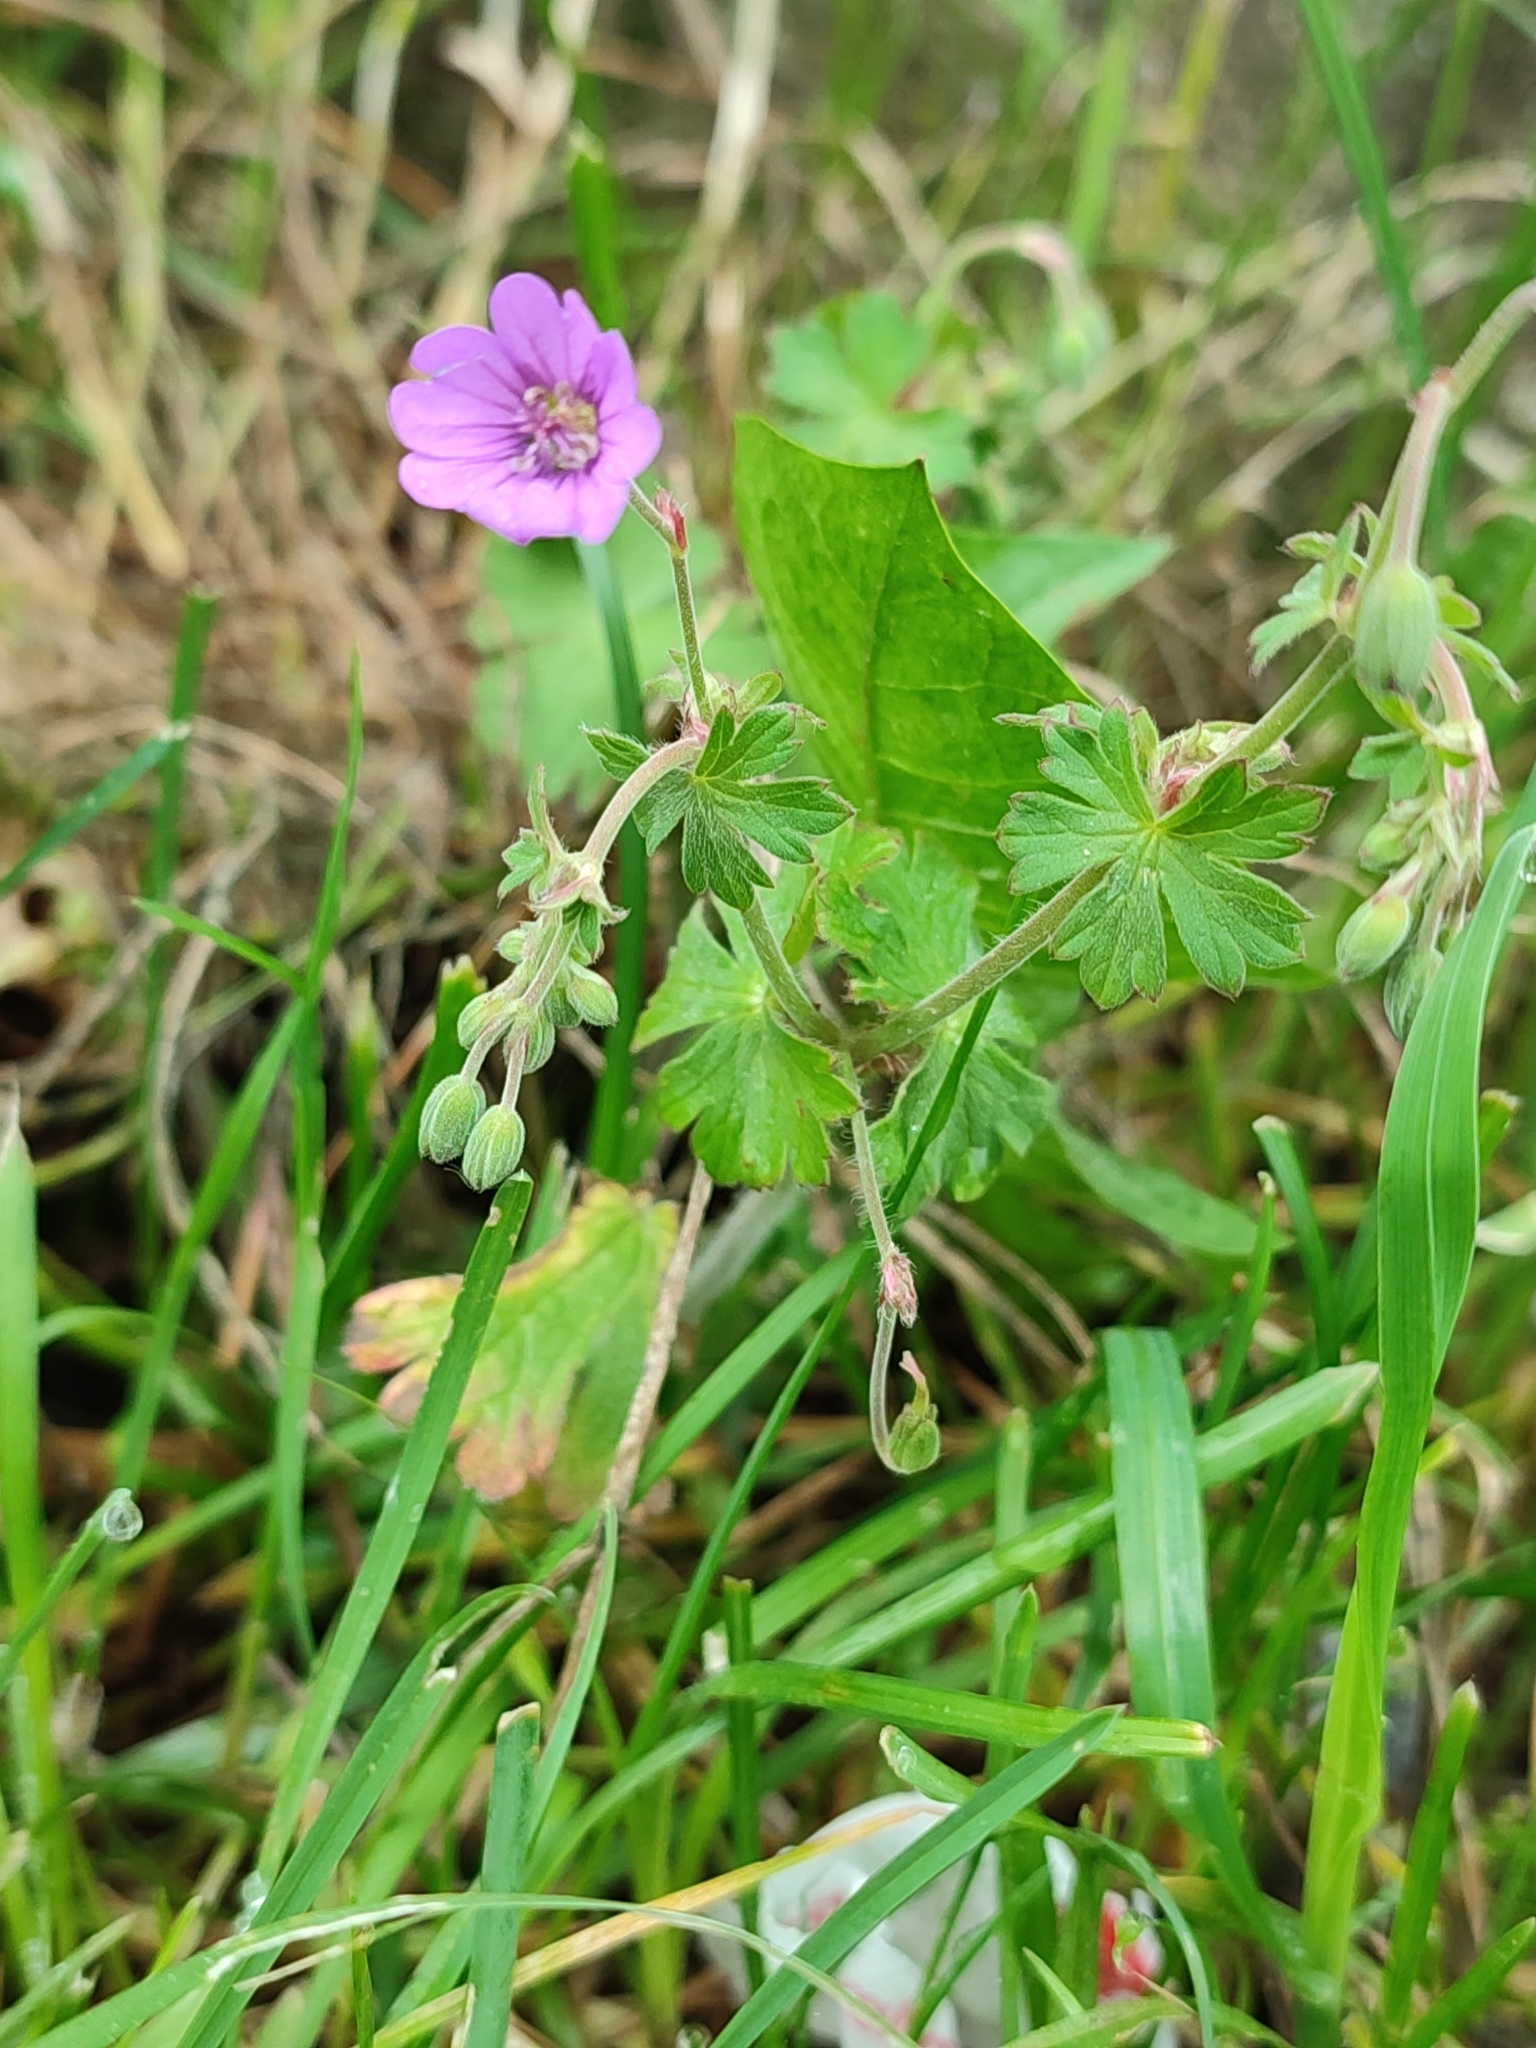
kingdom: Plantae
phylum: Tracheophyta
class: Magnoliopsida
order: Geraniales
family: Geraniaceae
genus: Geranium
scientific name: Geranium pyrenaicum
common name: Hedgerow crane's-bill
